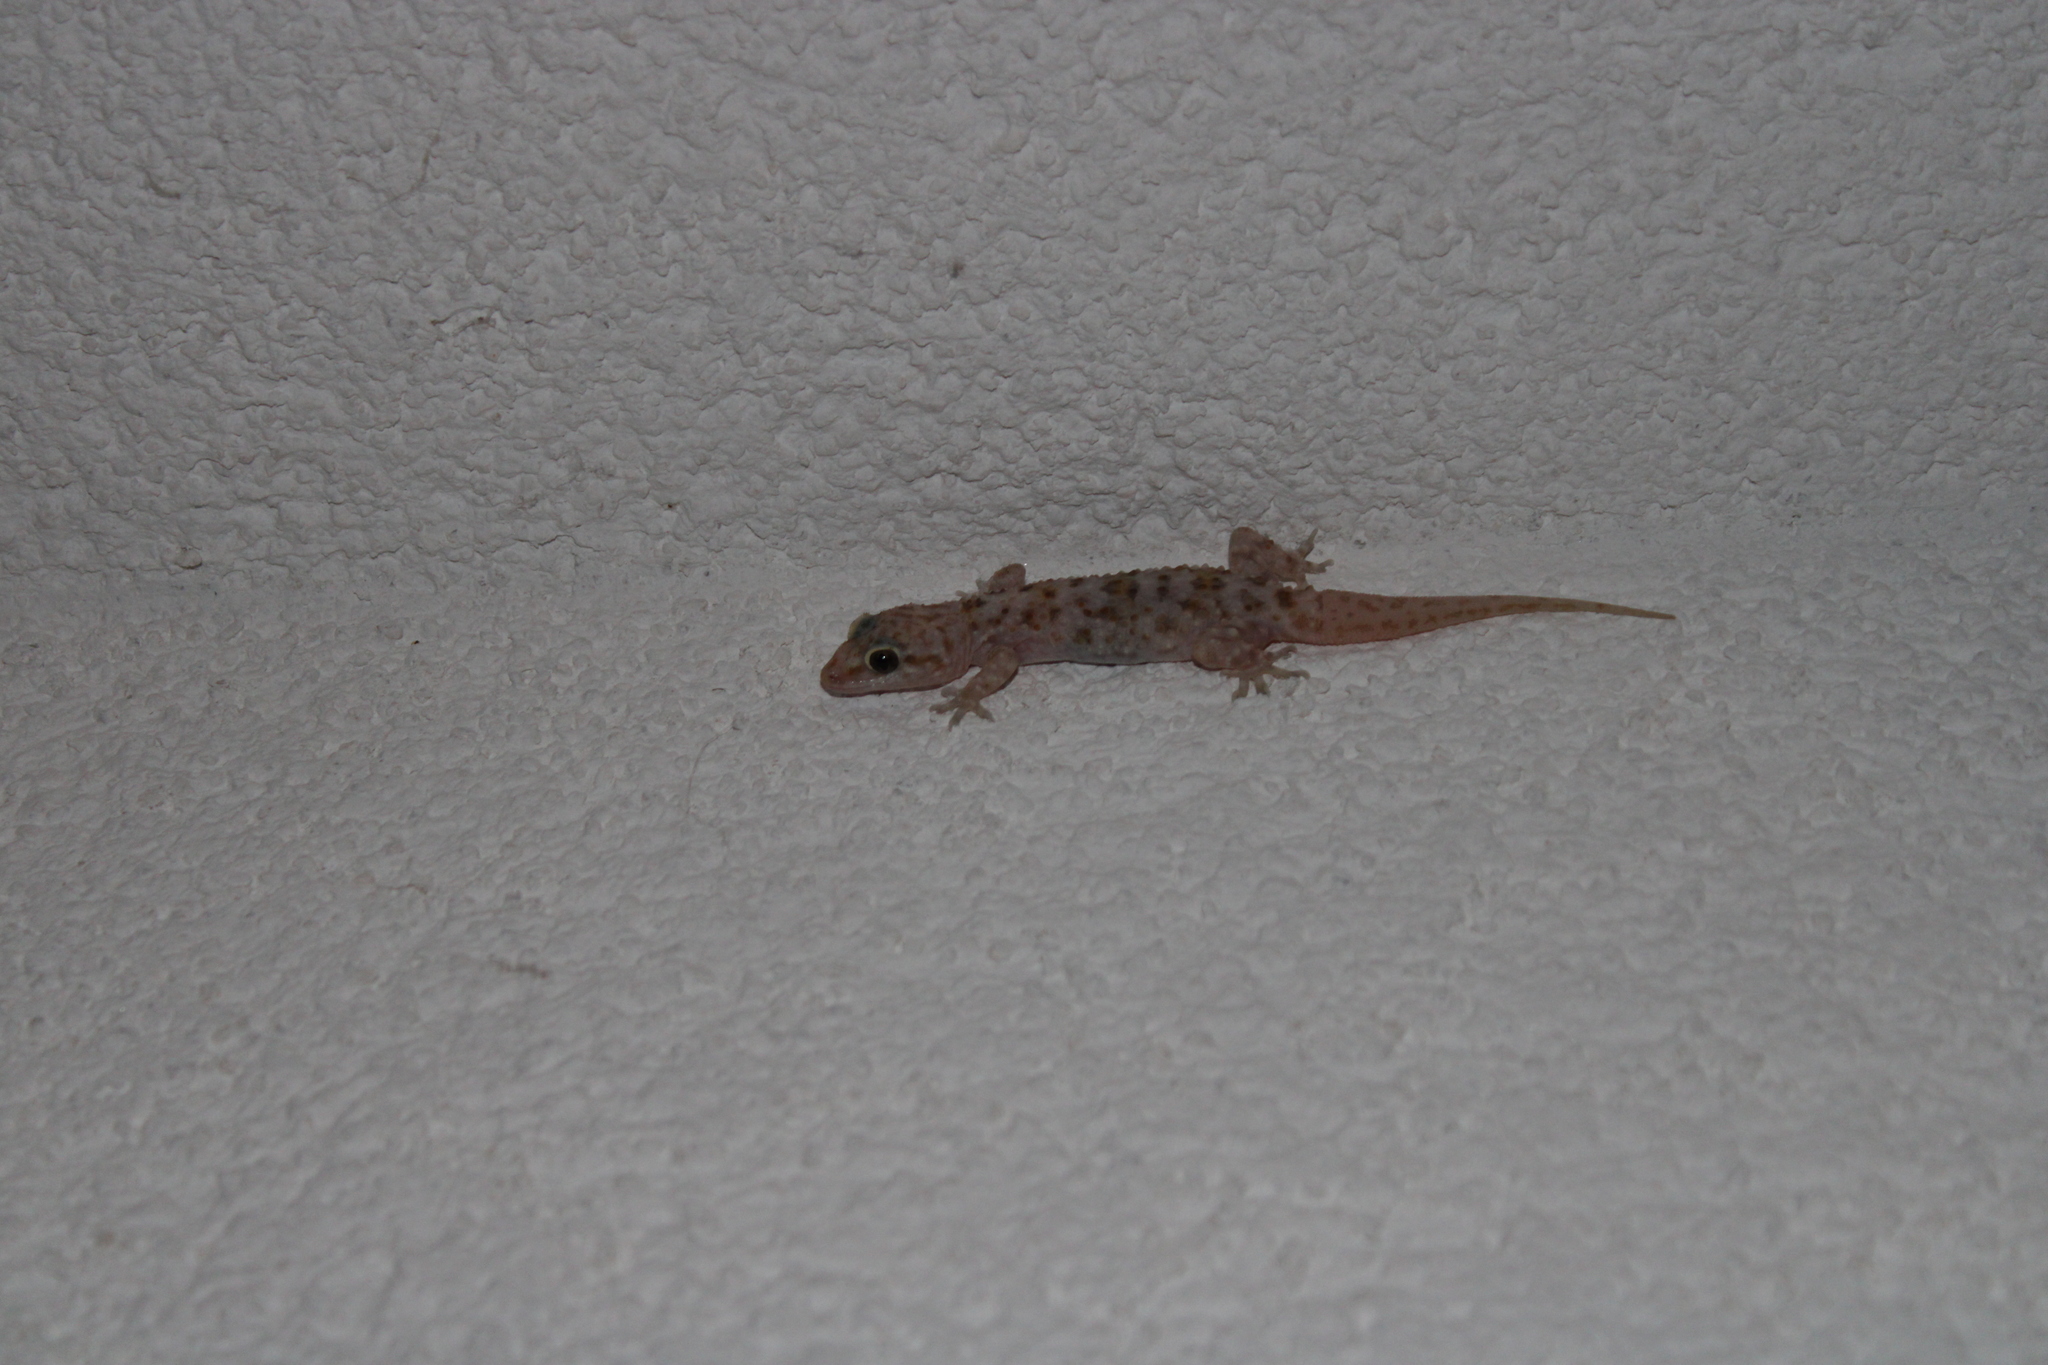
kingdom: Animalia
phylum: Chordata
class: Squamata
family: Gekkonidae
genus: Hemidactylus
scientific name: Hemidactylus turcicus
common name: Turkish gecko
